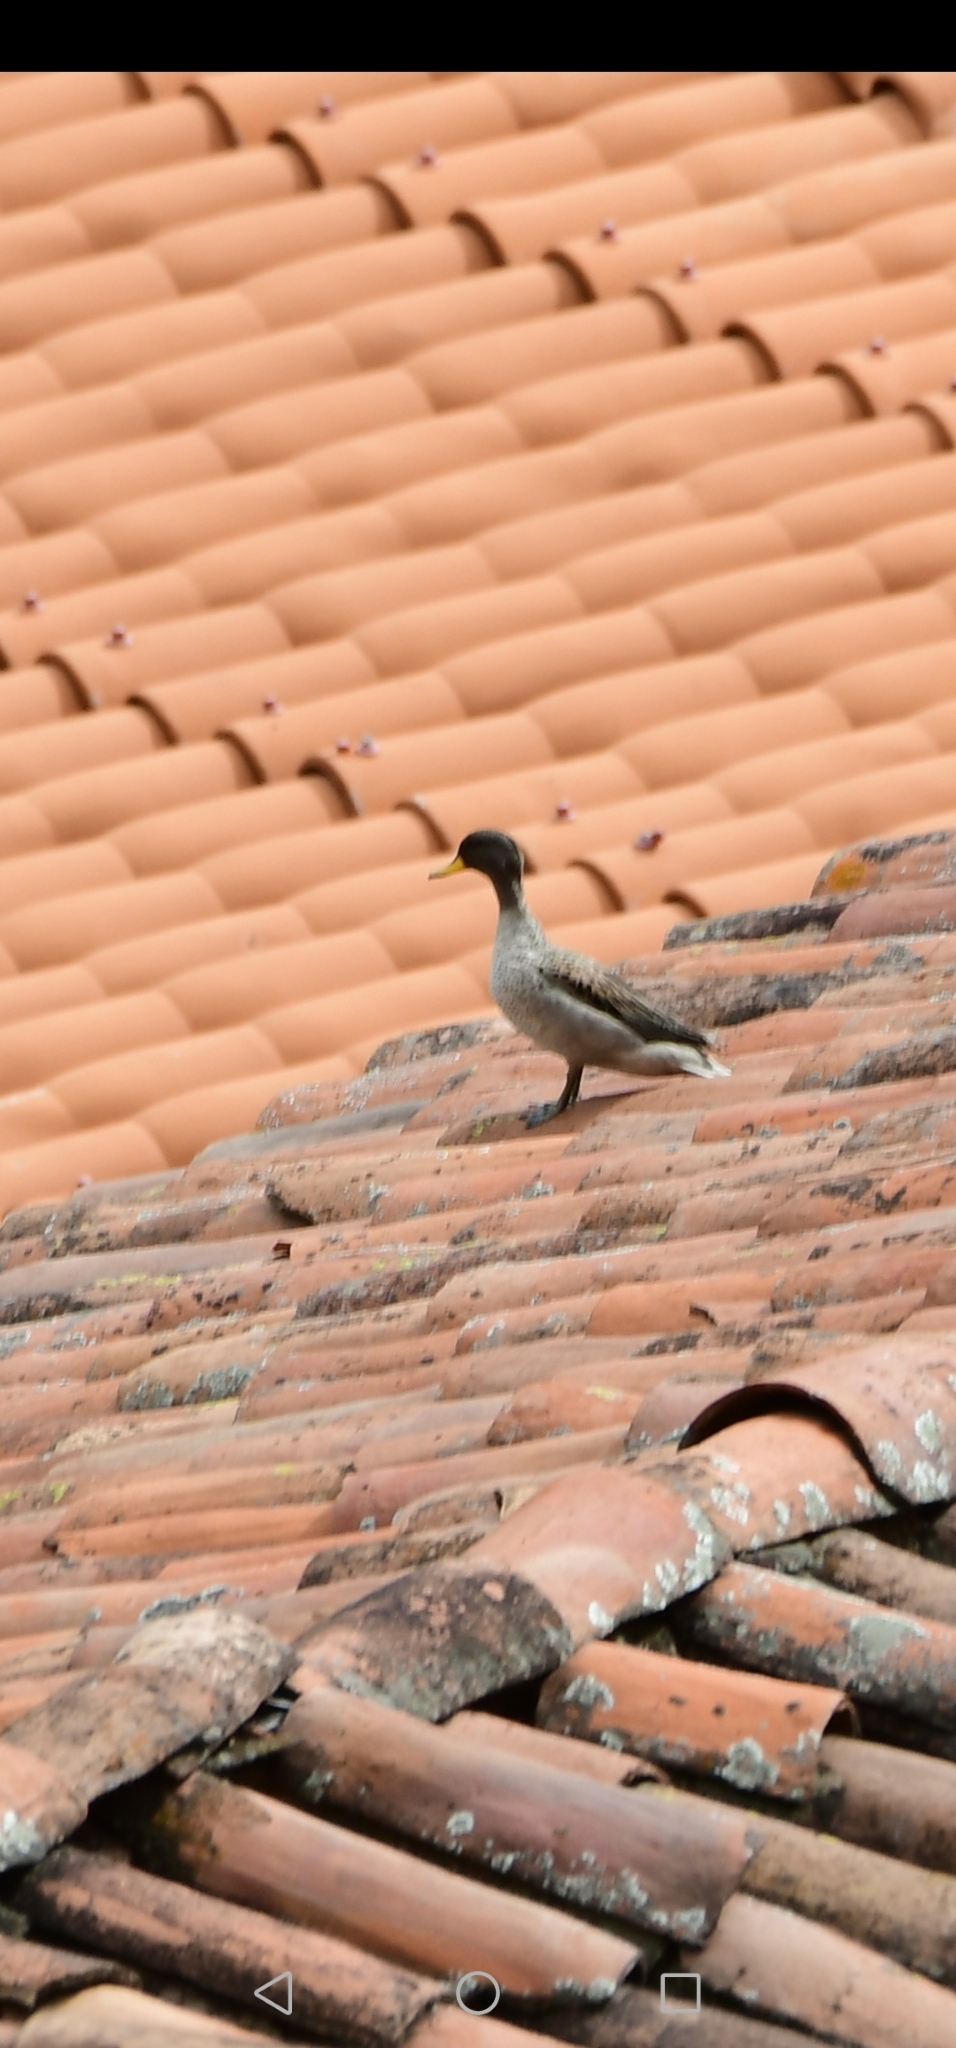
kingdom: Animalia
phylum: Chordata
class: Aves
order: Anseriformes
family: Anatidae
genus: Anas
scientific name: Anas flavirostris
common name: Yellow-billed teal
